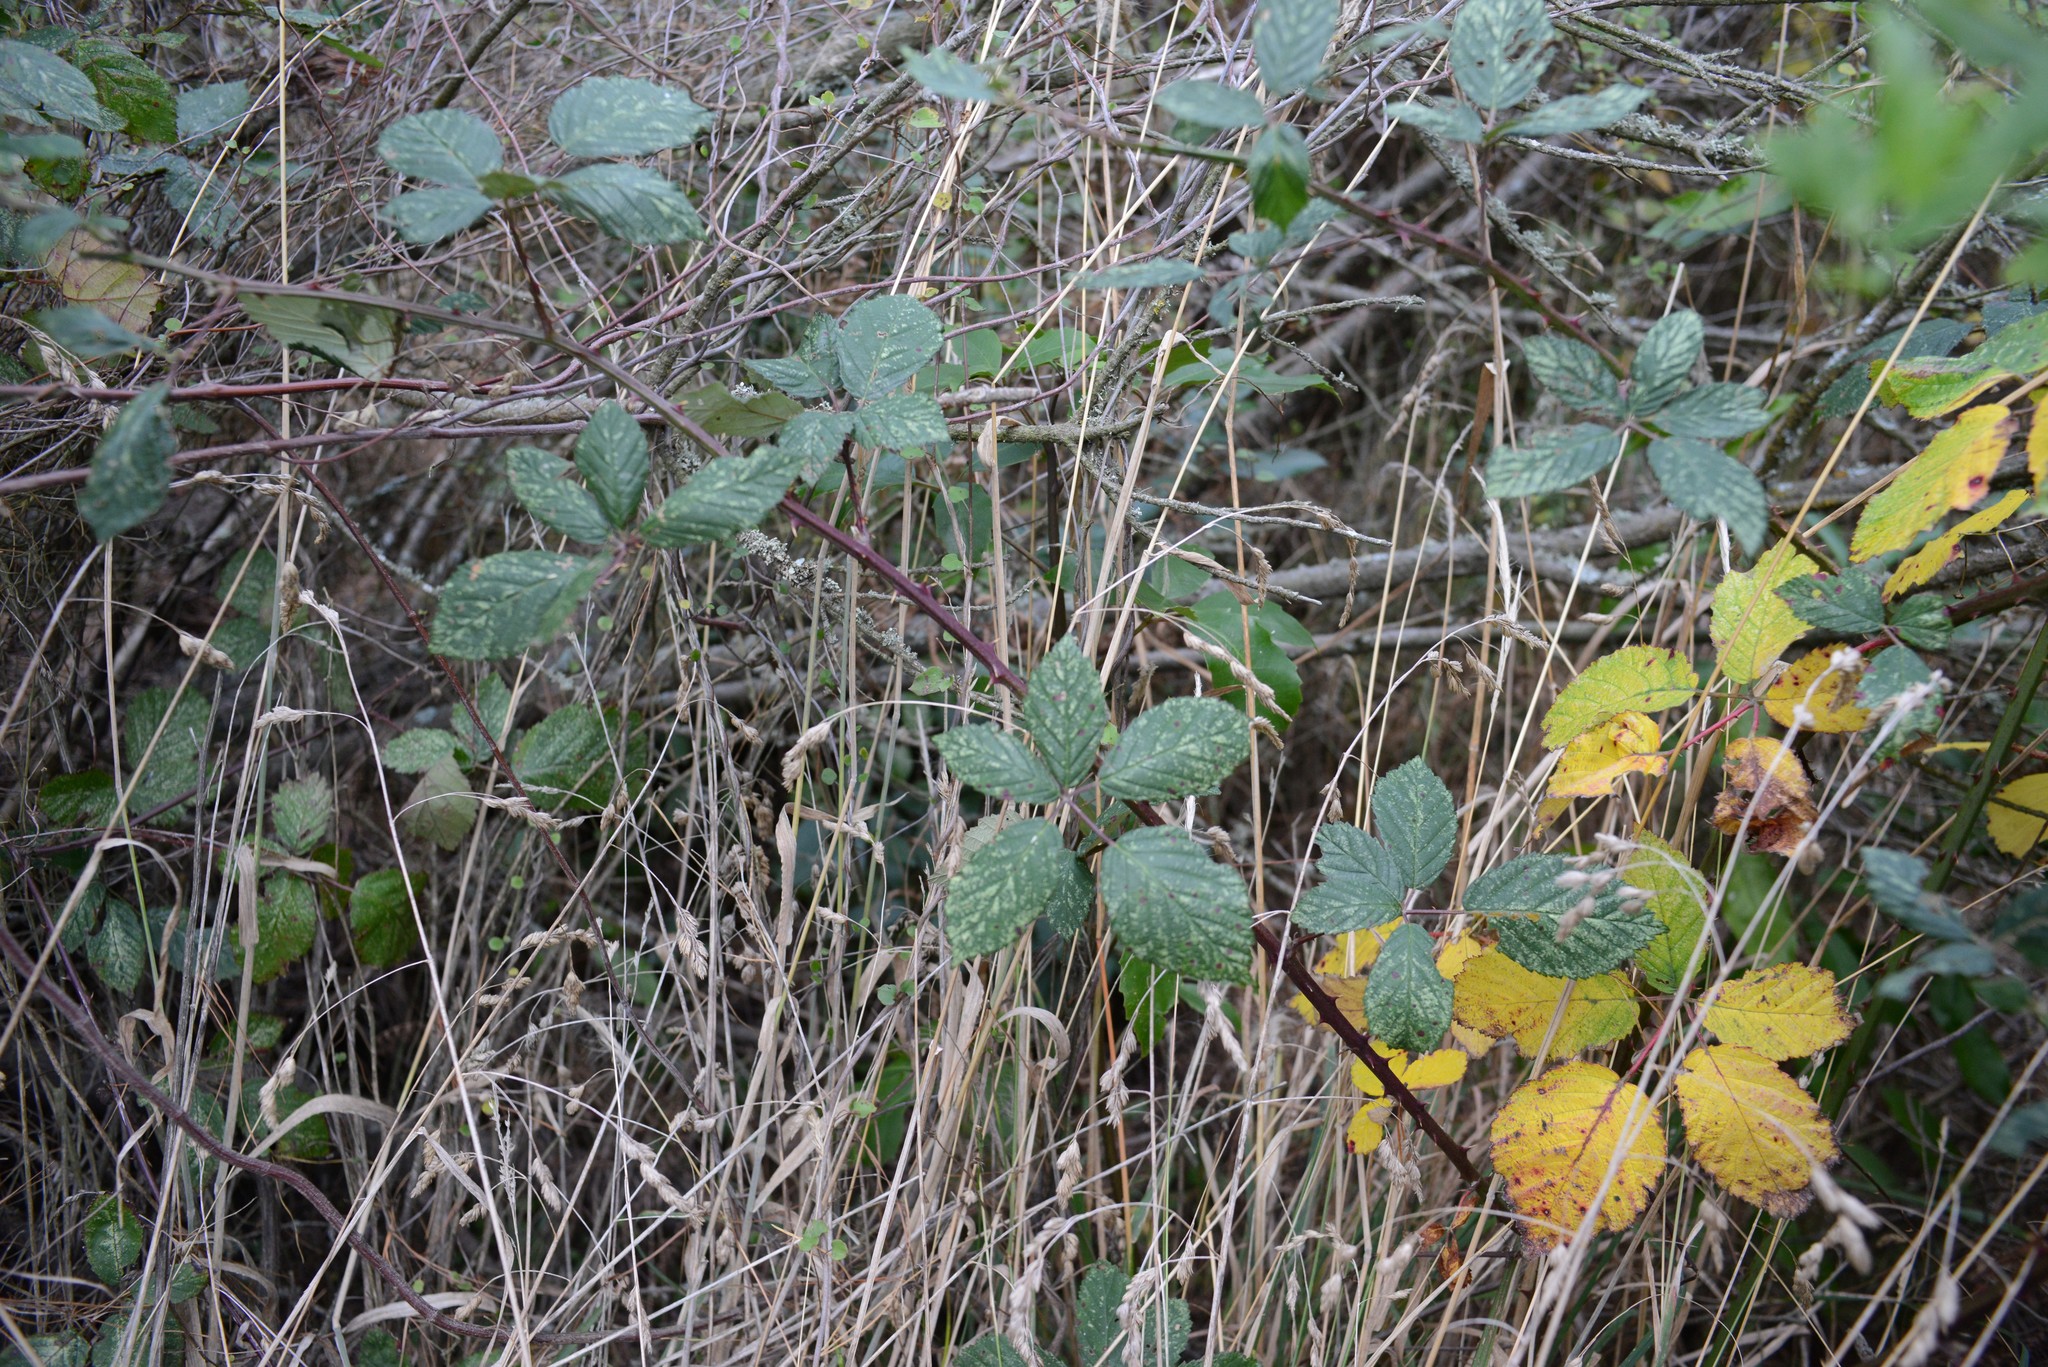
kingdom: Plantae
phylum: Tracheophyta
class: Magnoliopsida
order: Rosales
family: Rosaceae
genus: Rubus
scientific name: Rubus
